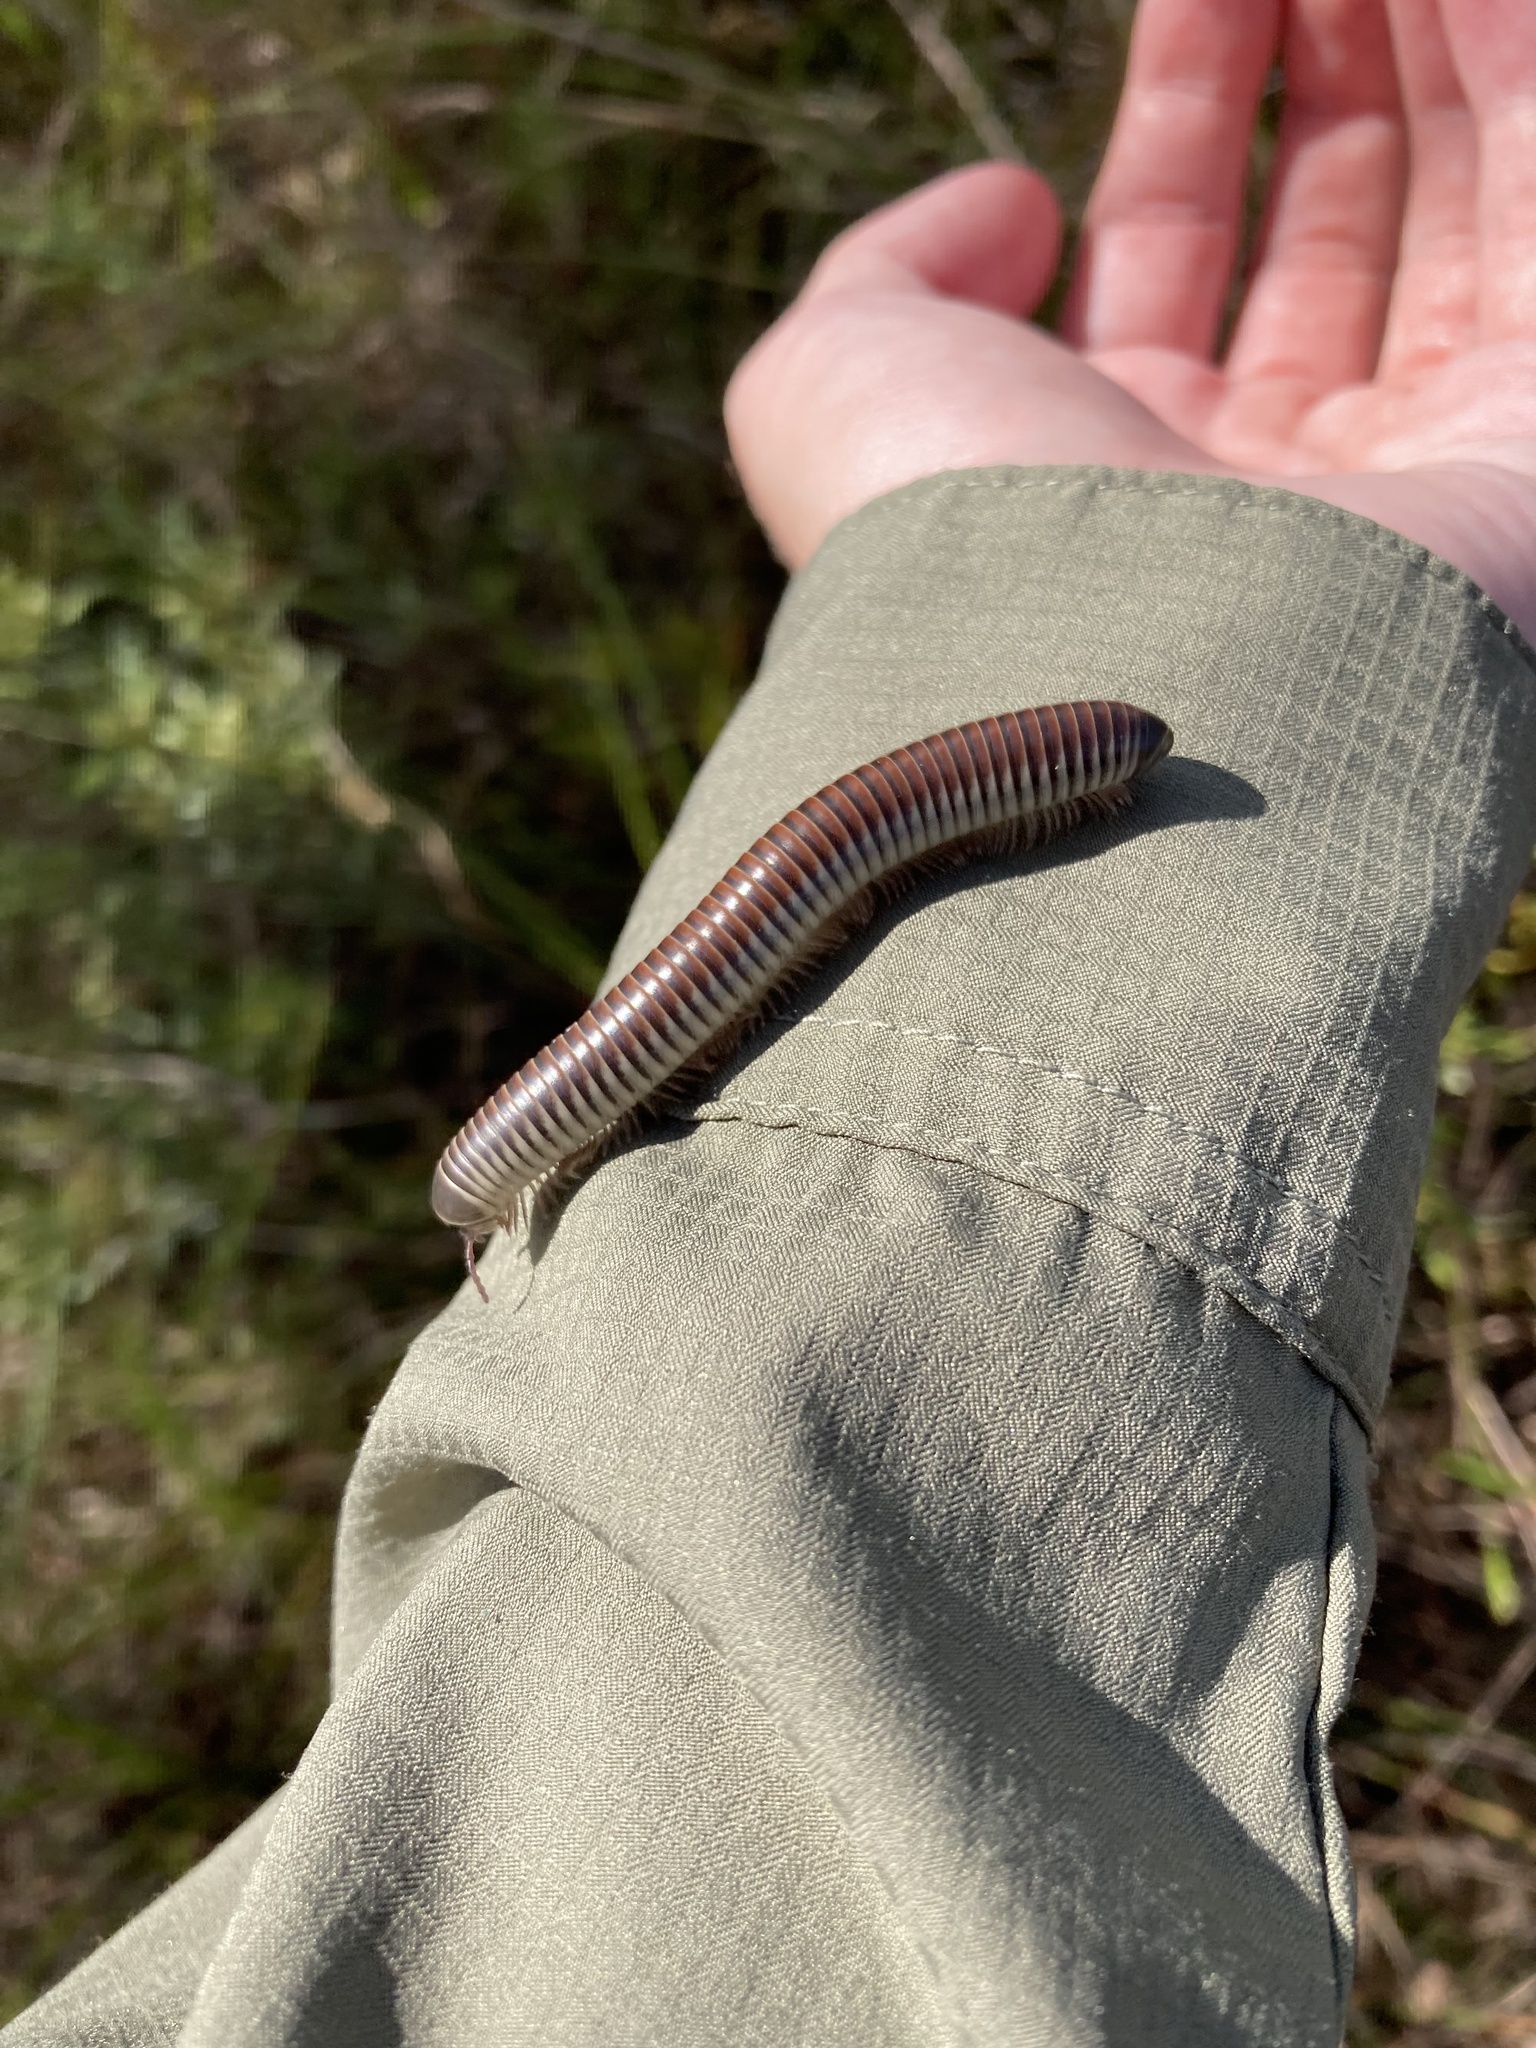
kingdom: Animalia
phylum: Arthropoda
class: Diplopoda
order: Spirobolida
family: Spirobolidae
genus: Chicobolus
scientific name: Chicobolus spinigerus
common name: Florida ivory millipede
